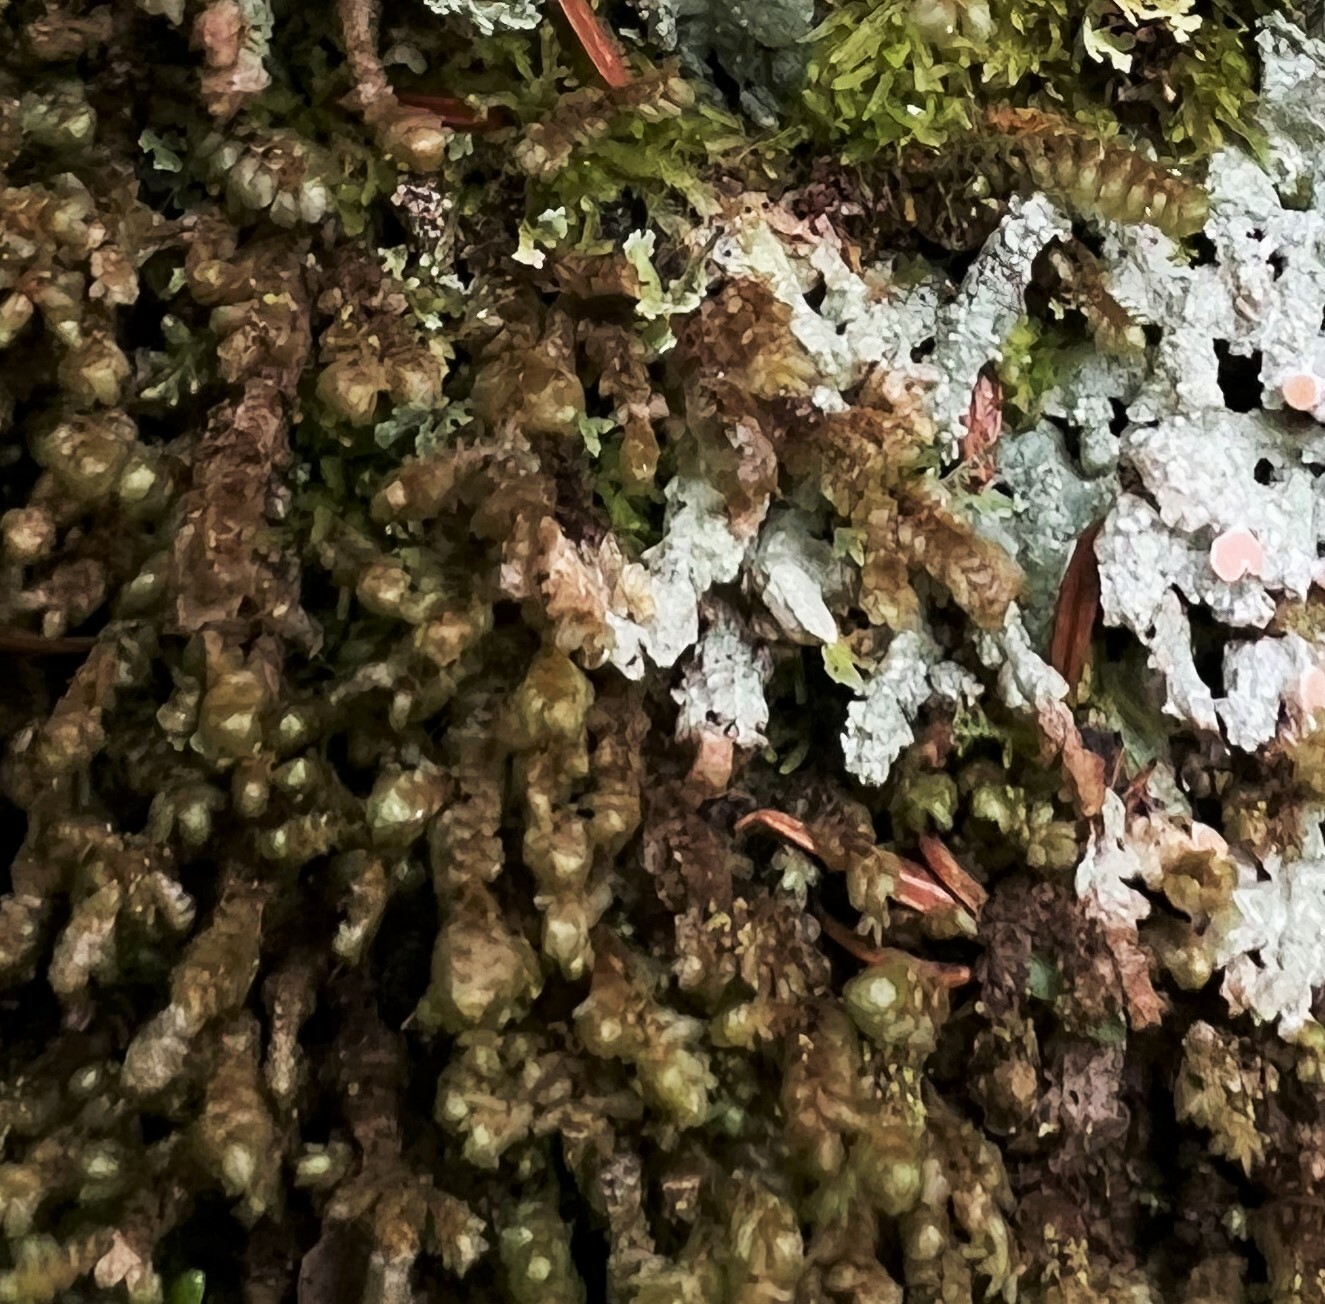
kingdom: Plantae
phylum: Marchantiophyta
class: Jungermanniopsida
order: Jungermanniales
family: Scapaniaceae
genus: Scapania
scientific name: Scapania bolanderi
